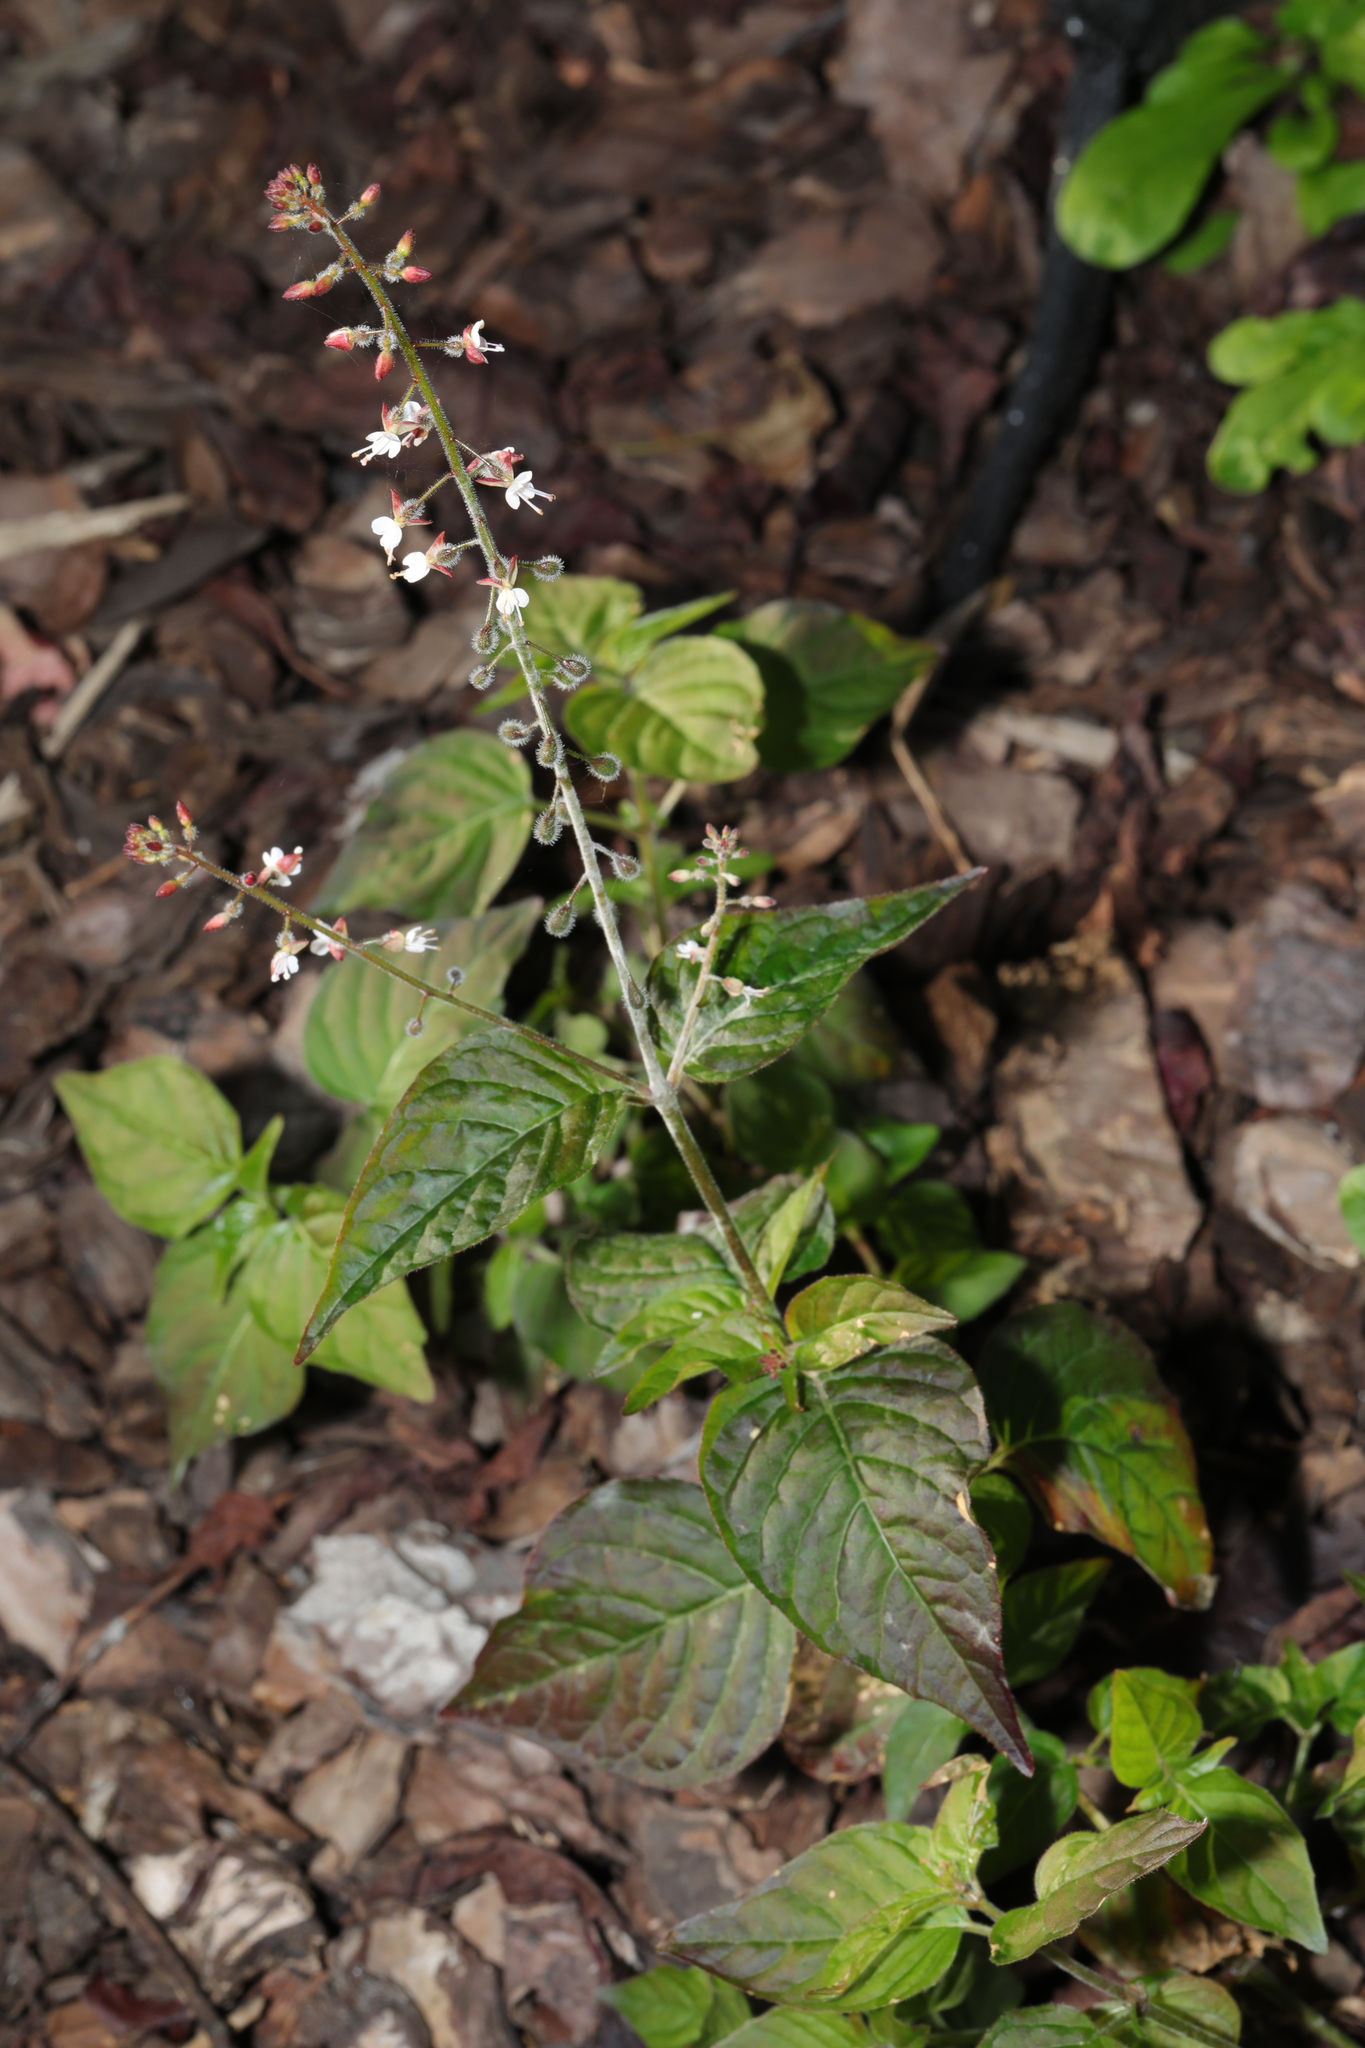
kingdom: Plantae
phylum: Tracheophyta
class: Magnoliopsida
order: Myrtales
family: Onagraceae
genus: Circaea
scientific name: Circaea lutetiana
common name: Enchanter's-nightshade
